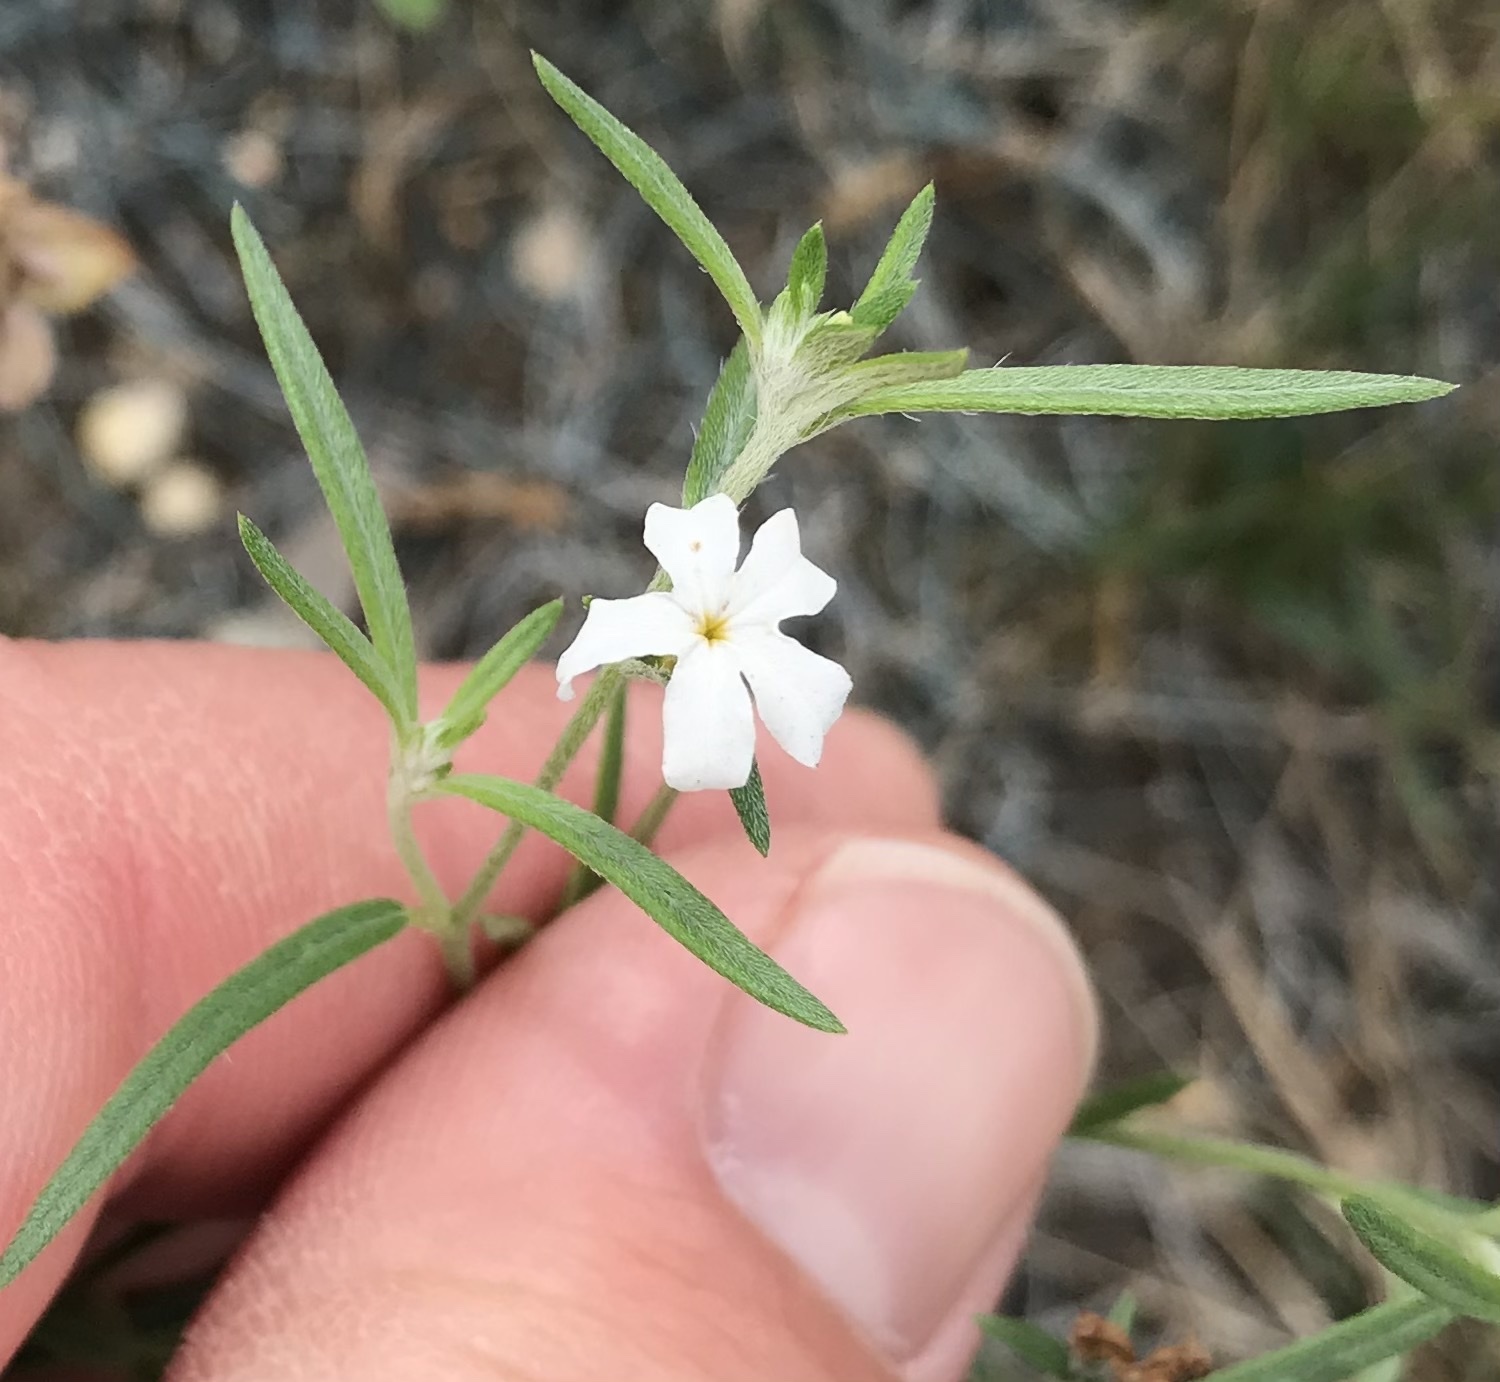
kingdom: Plantae
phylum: Tracheophyta
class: Magnoliopsida
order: Boraginales
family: Heliotropiaceae
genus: Euploca
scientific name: Euploca tenella
